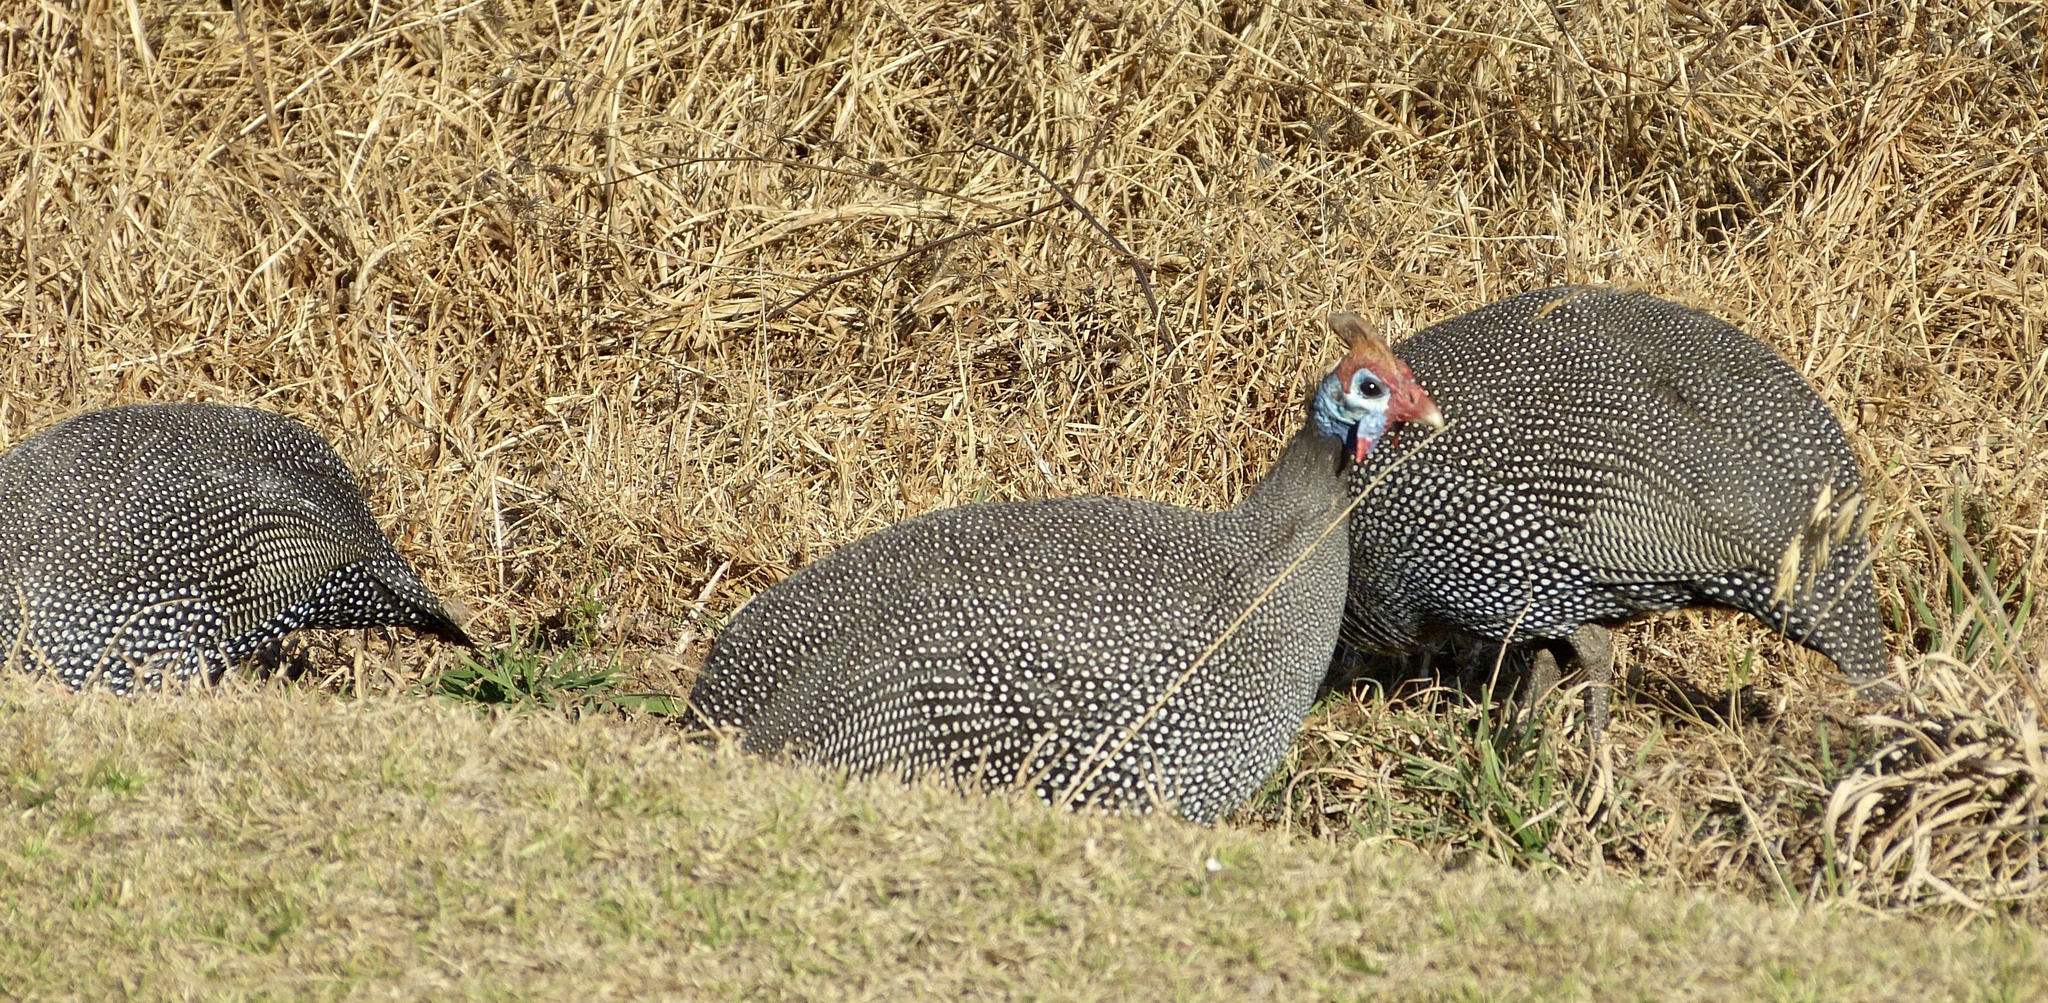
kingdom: Animalia
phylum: Chordata
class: Aves
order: Galliformes
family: Numididae
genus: Numida
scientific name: Numida meleagris
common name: Helmeted guineafowl
